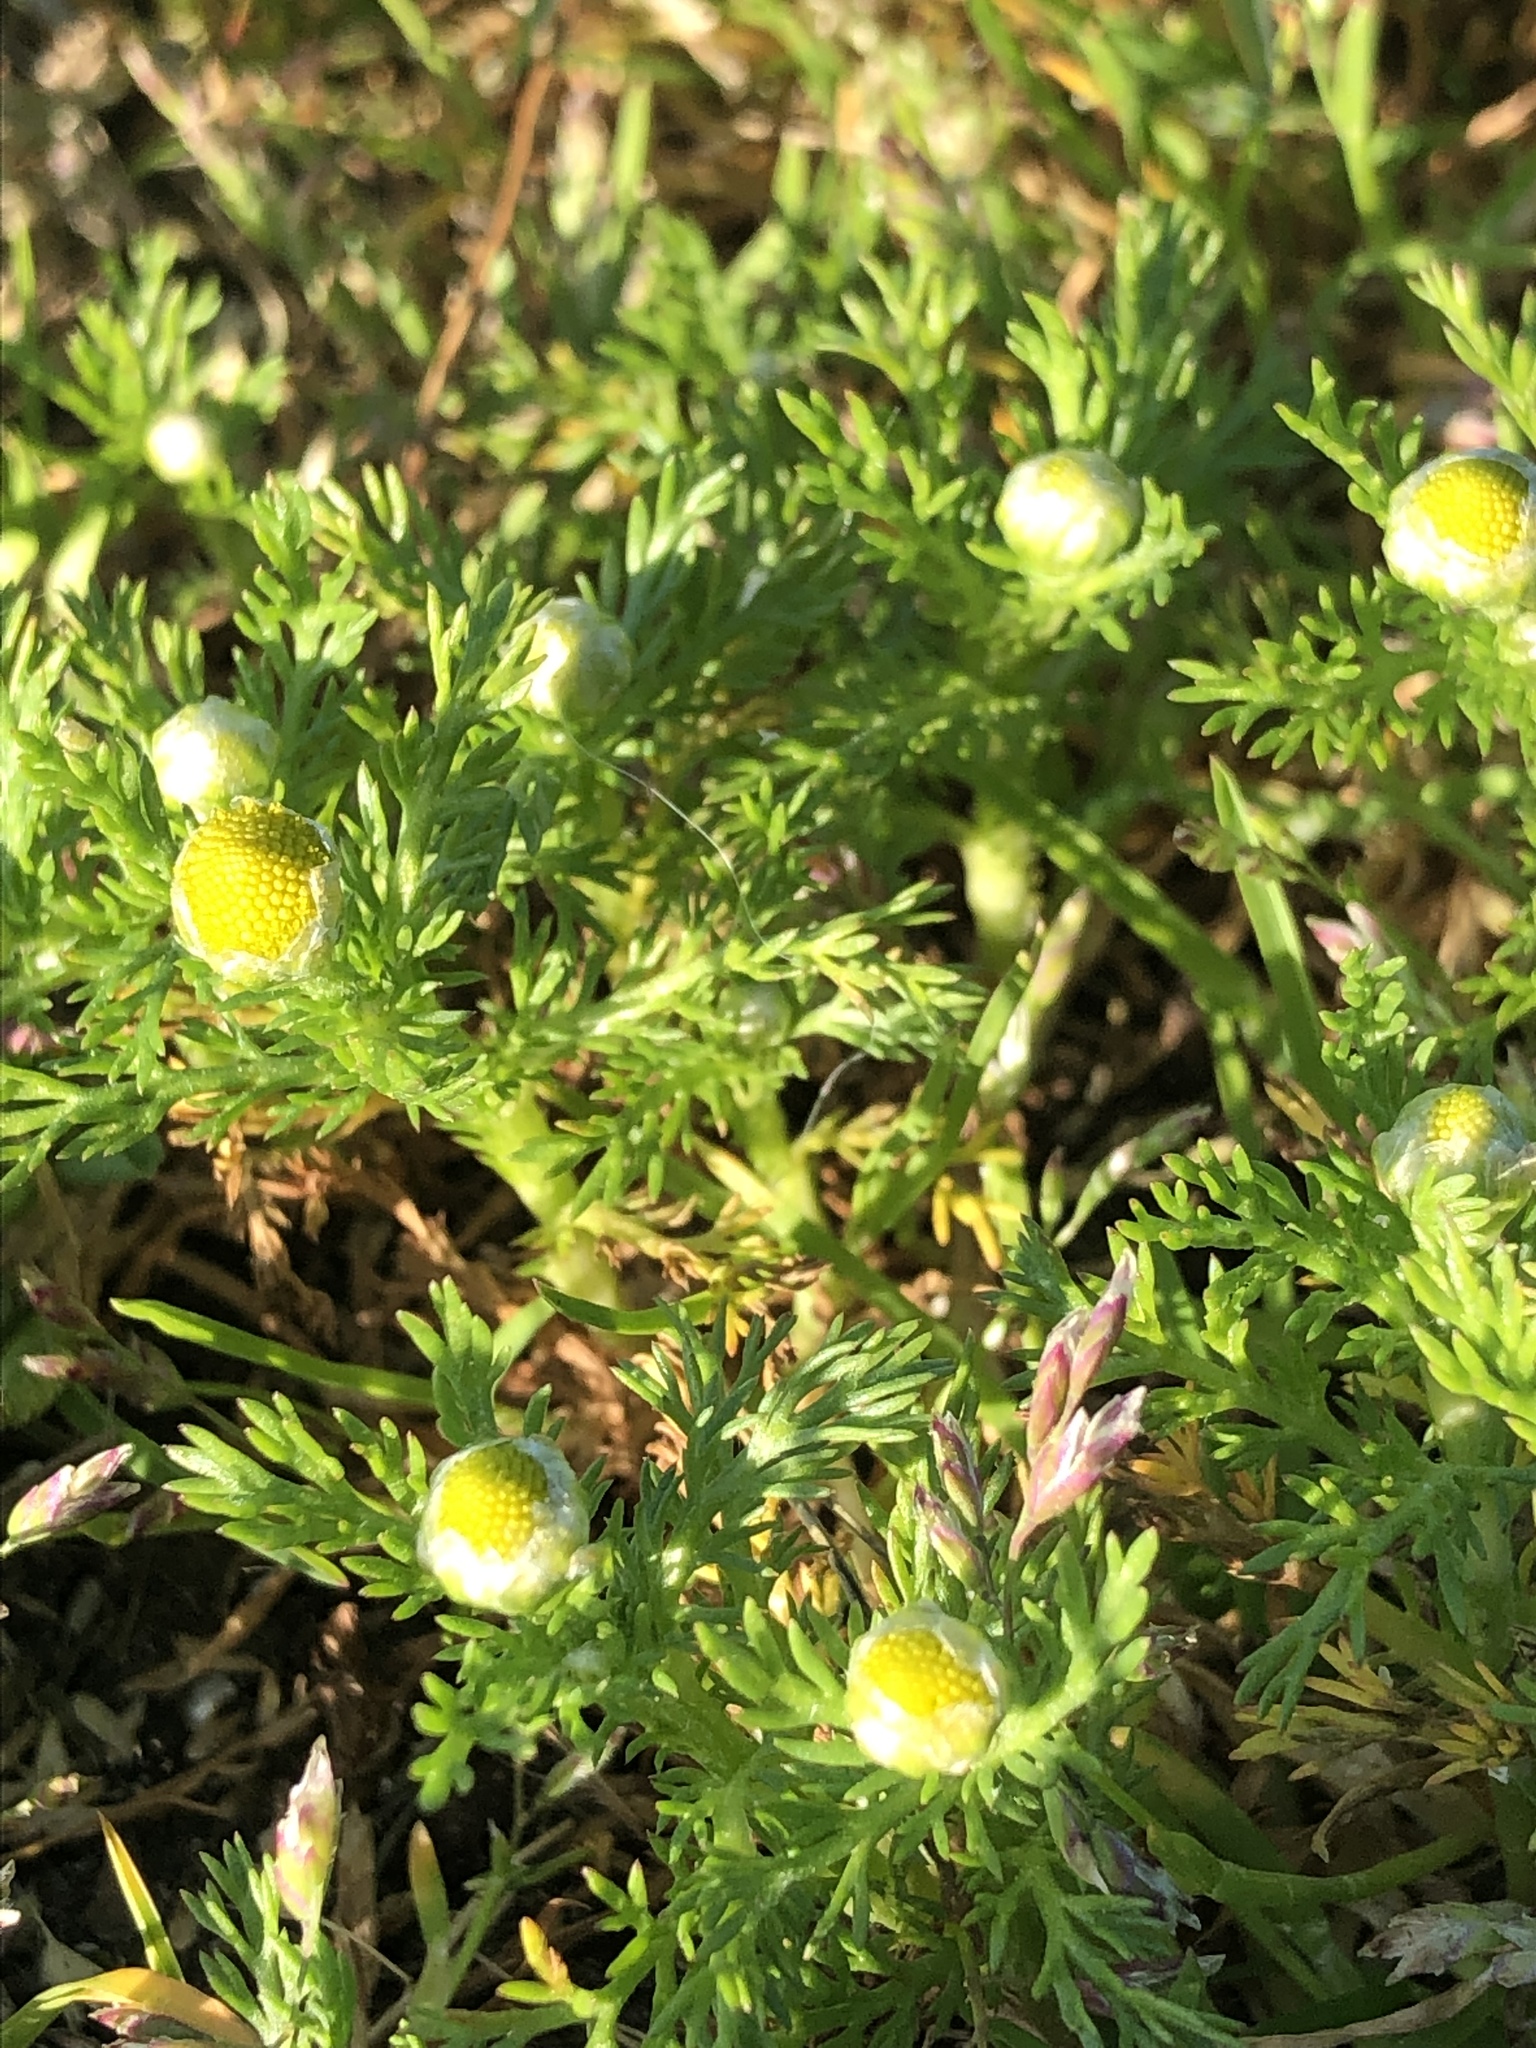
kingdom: Plantae
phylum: Tracheophyta
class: Magnoliopsida
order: Asterales
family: Asteraceae
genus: Matricaria
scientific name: Matricaria discoidea
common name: Disc mayweed
